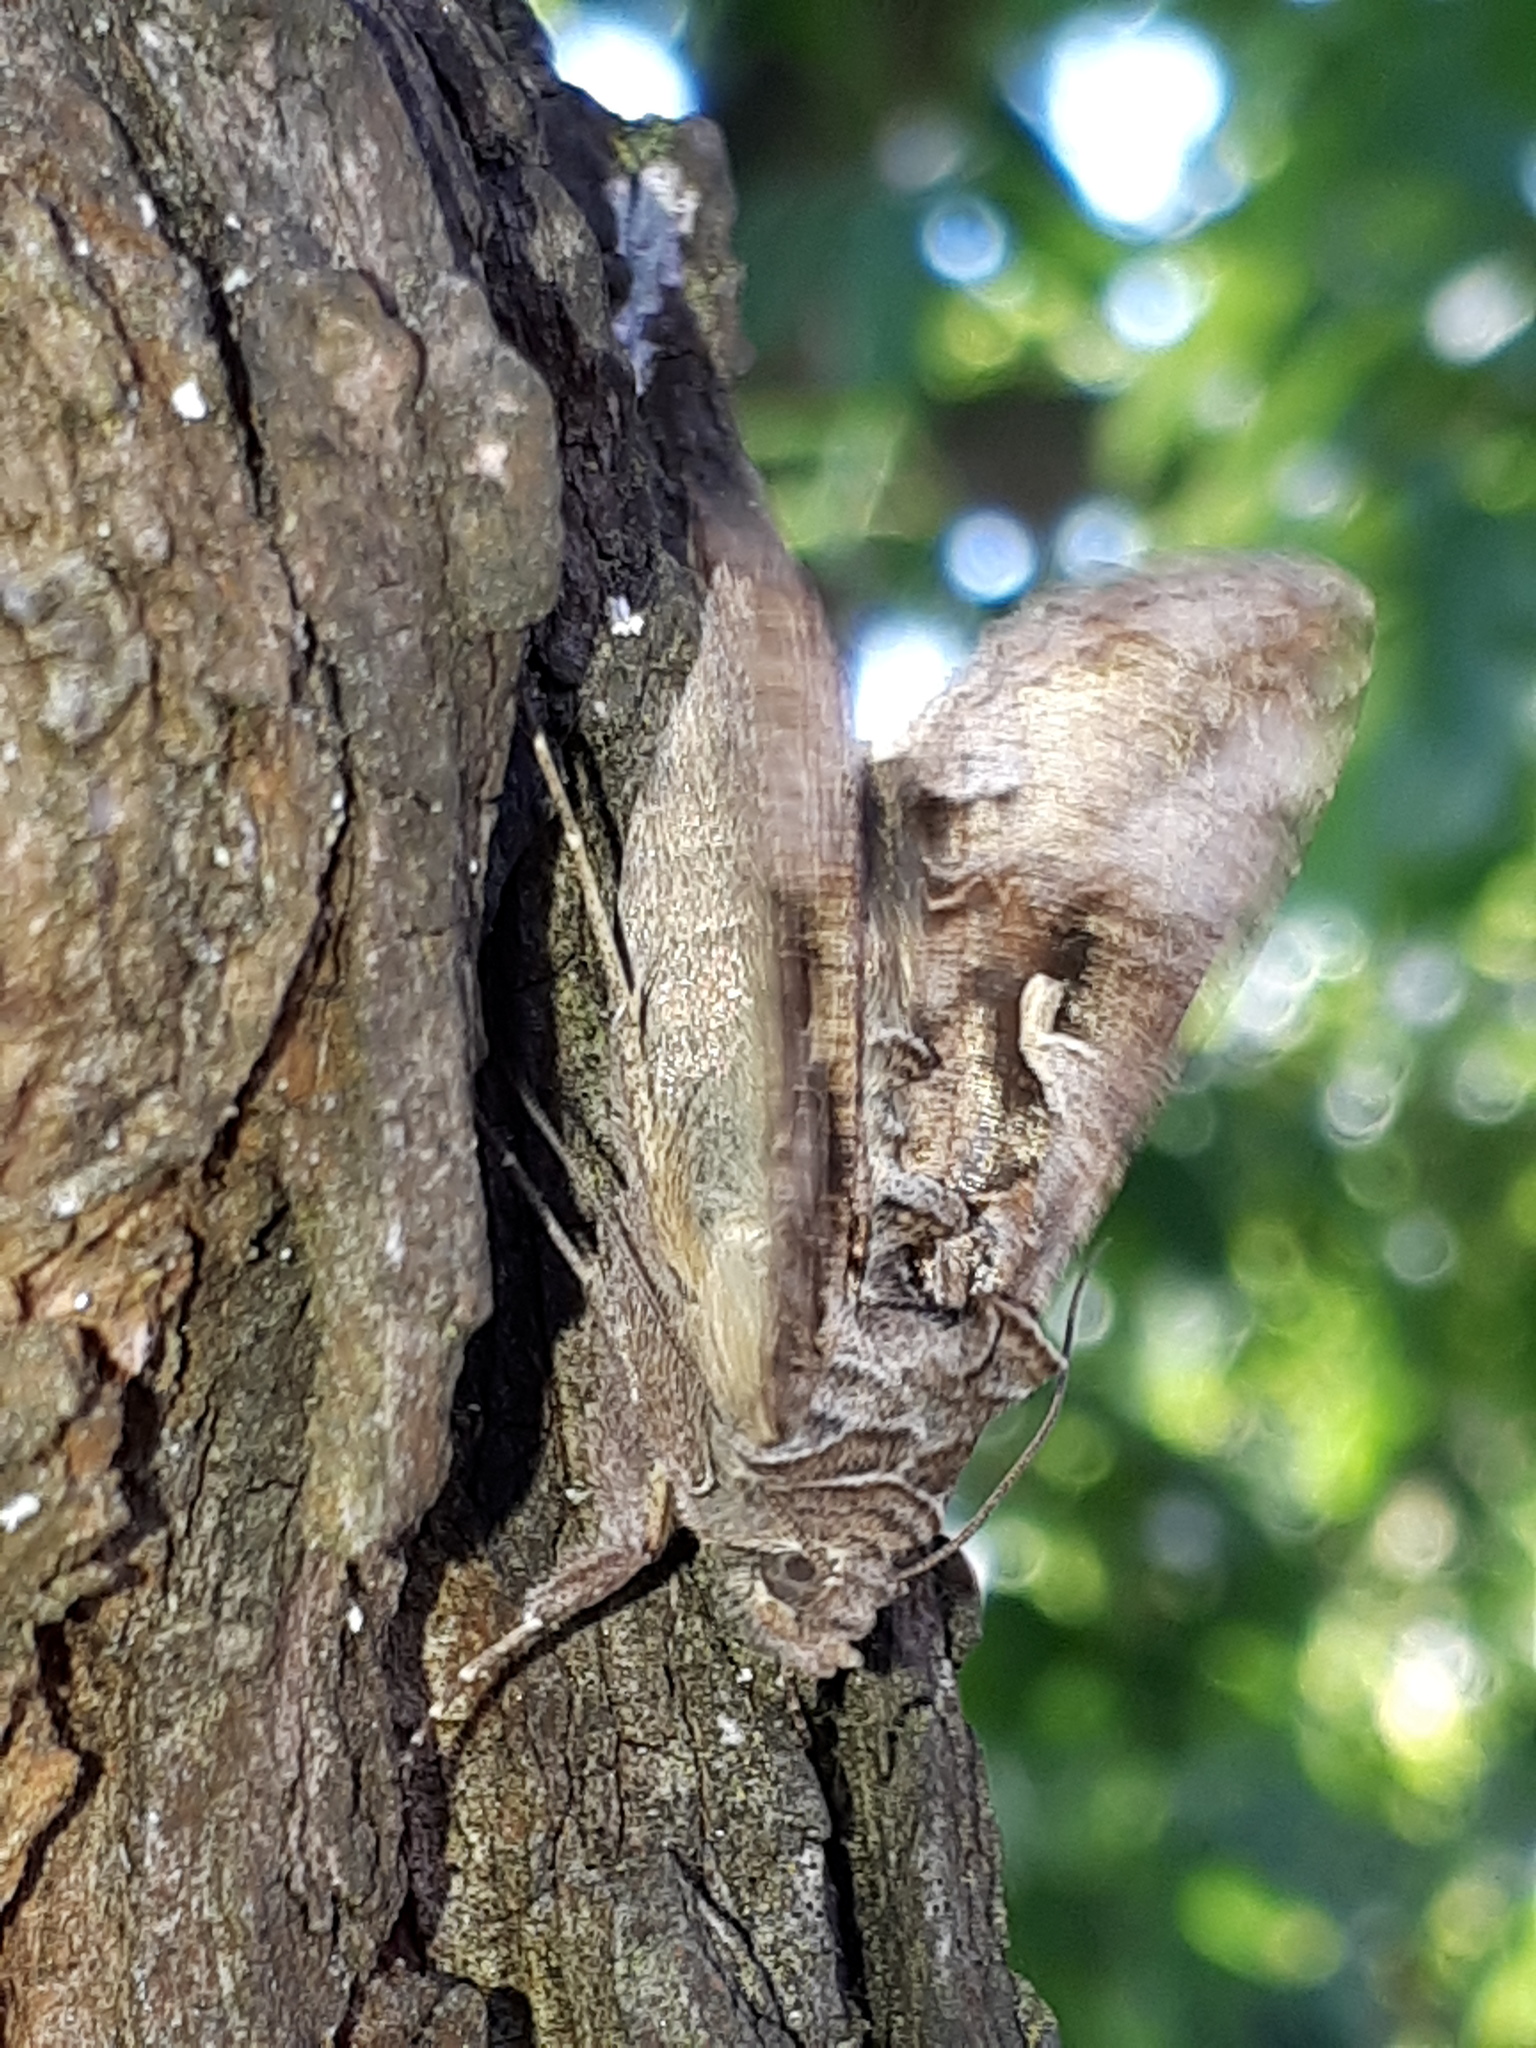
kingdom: Animalia
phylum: Arthropoda
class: Insecta
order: Lepidoptera
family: Noctuidae
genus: Autographa
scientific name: Autographa gamma
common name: Silver y
